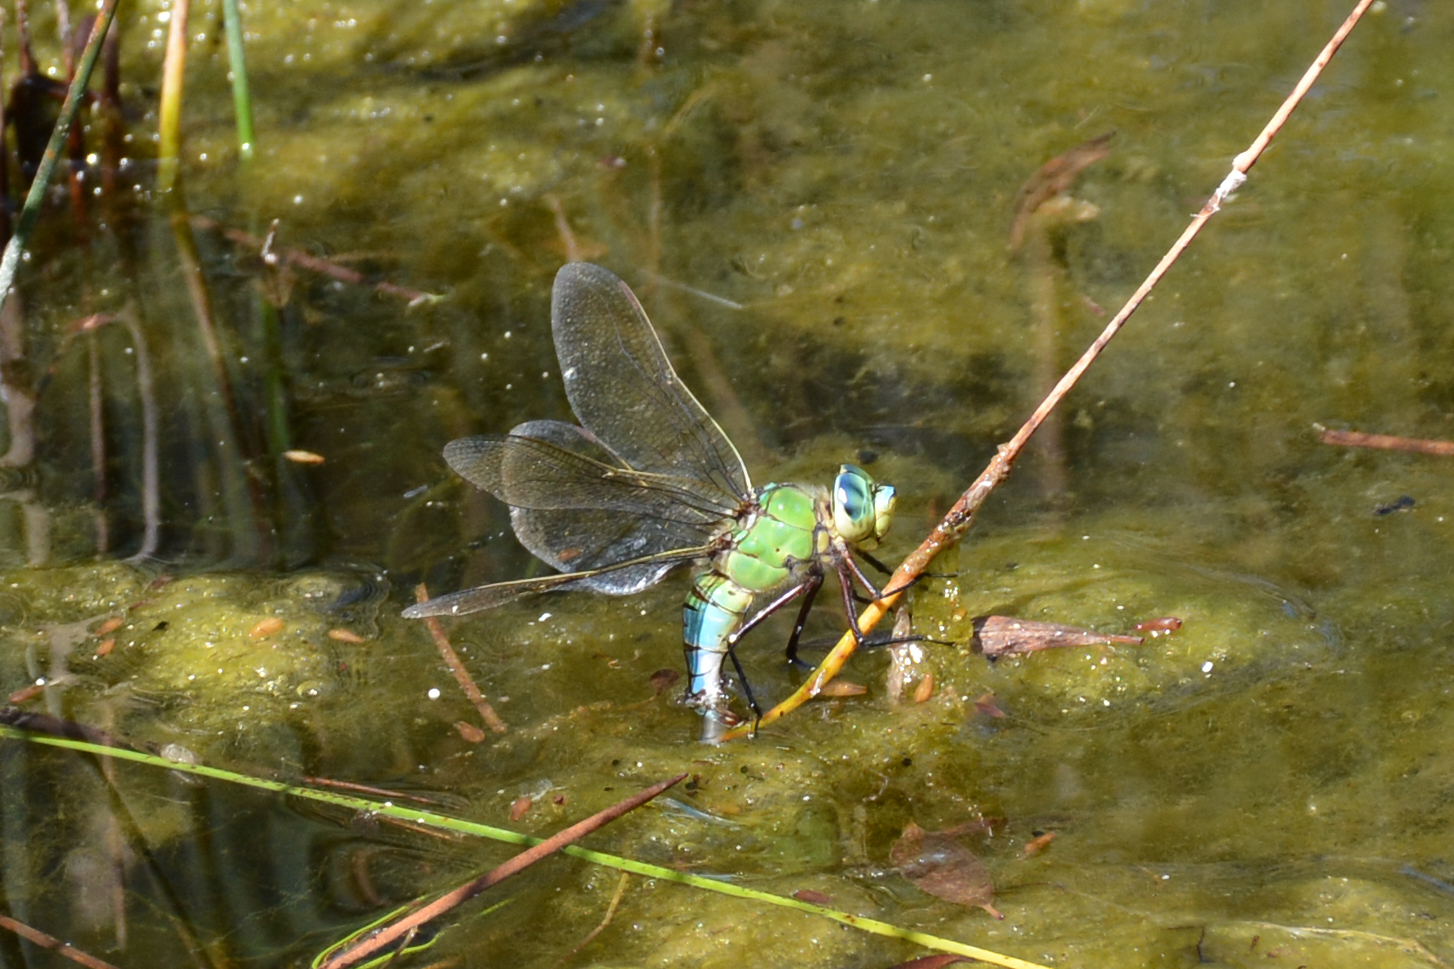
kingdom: Animalia
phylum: Arthropoda
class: Insecta
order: Odonata
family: Aeshnidae
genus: Anax
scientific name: Anax imperator
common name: Emperor dragonfly
